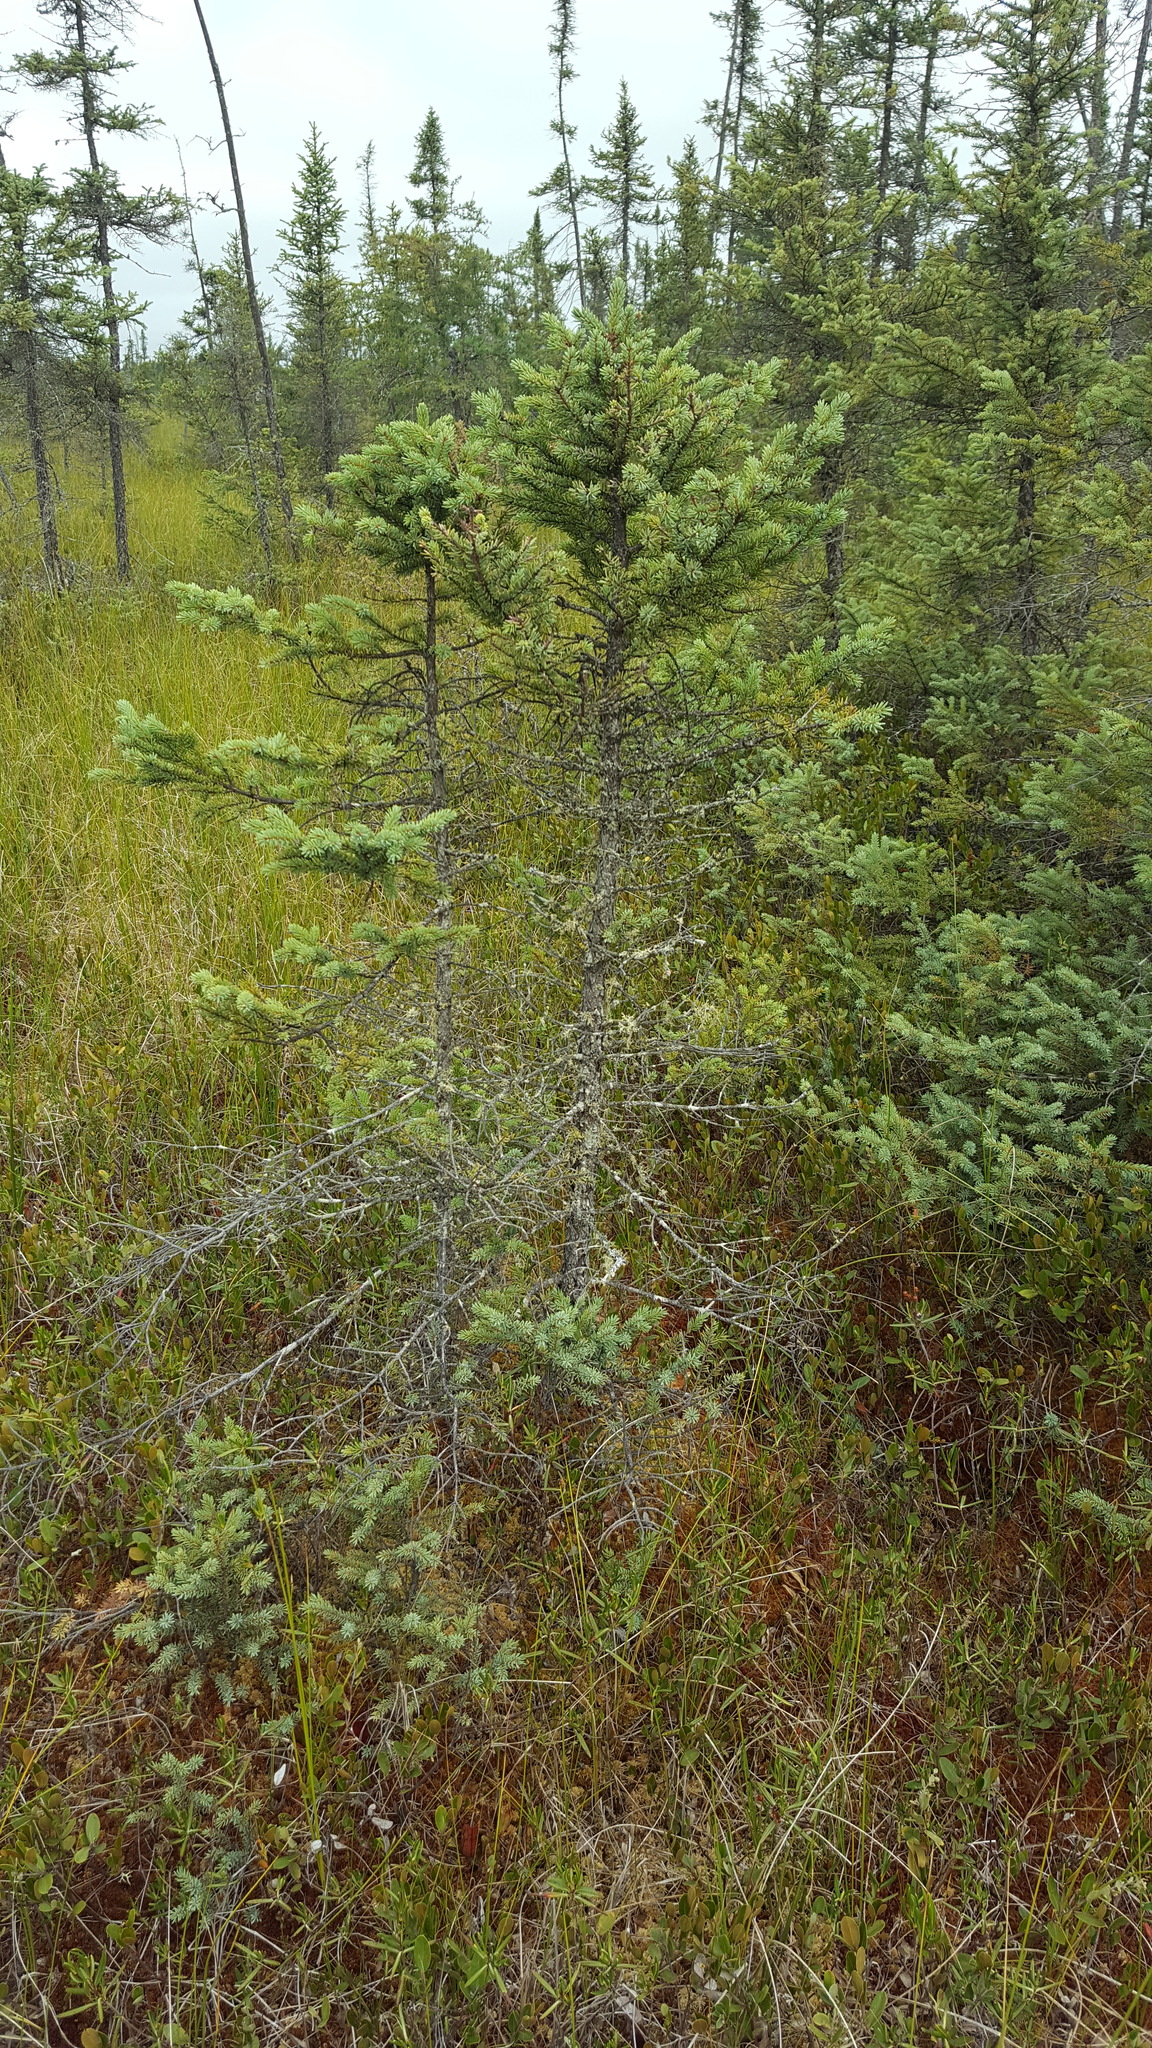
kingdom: Plantae
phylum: Tracheophyta
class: Pinopsida
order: Pinales
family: Pinaceae
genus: Picea
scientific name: Picea mariana
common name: Black spruce
